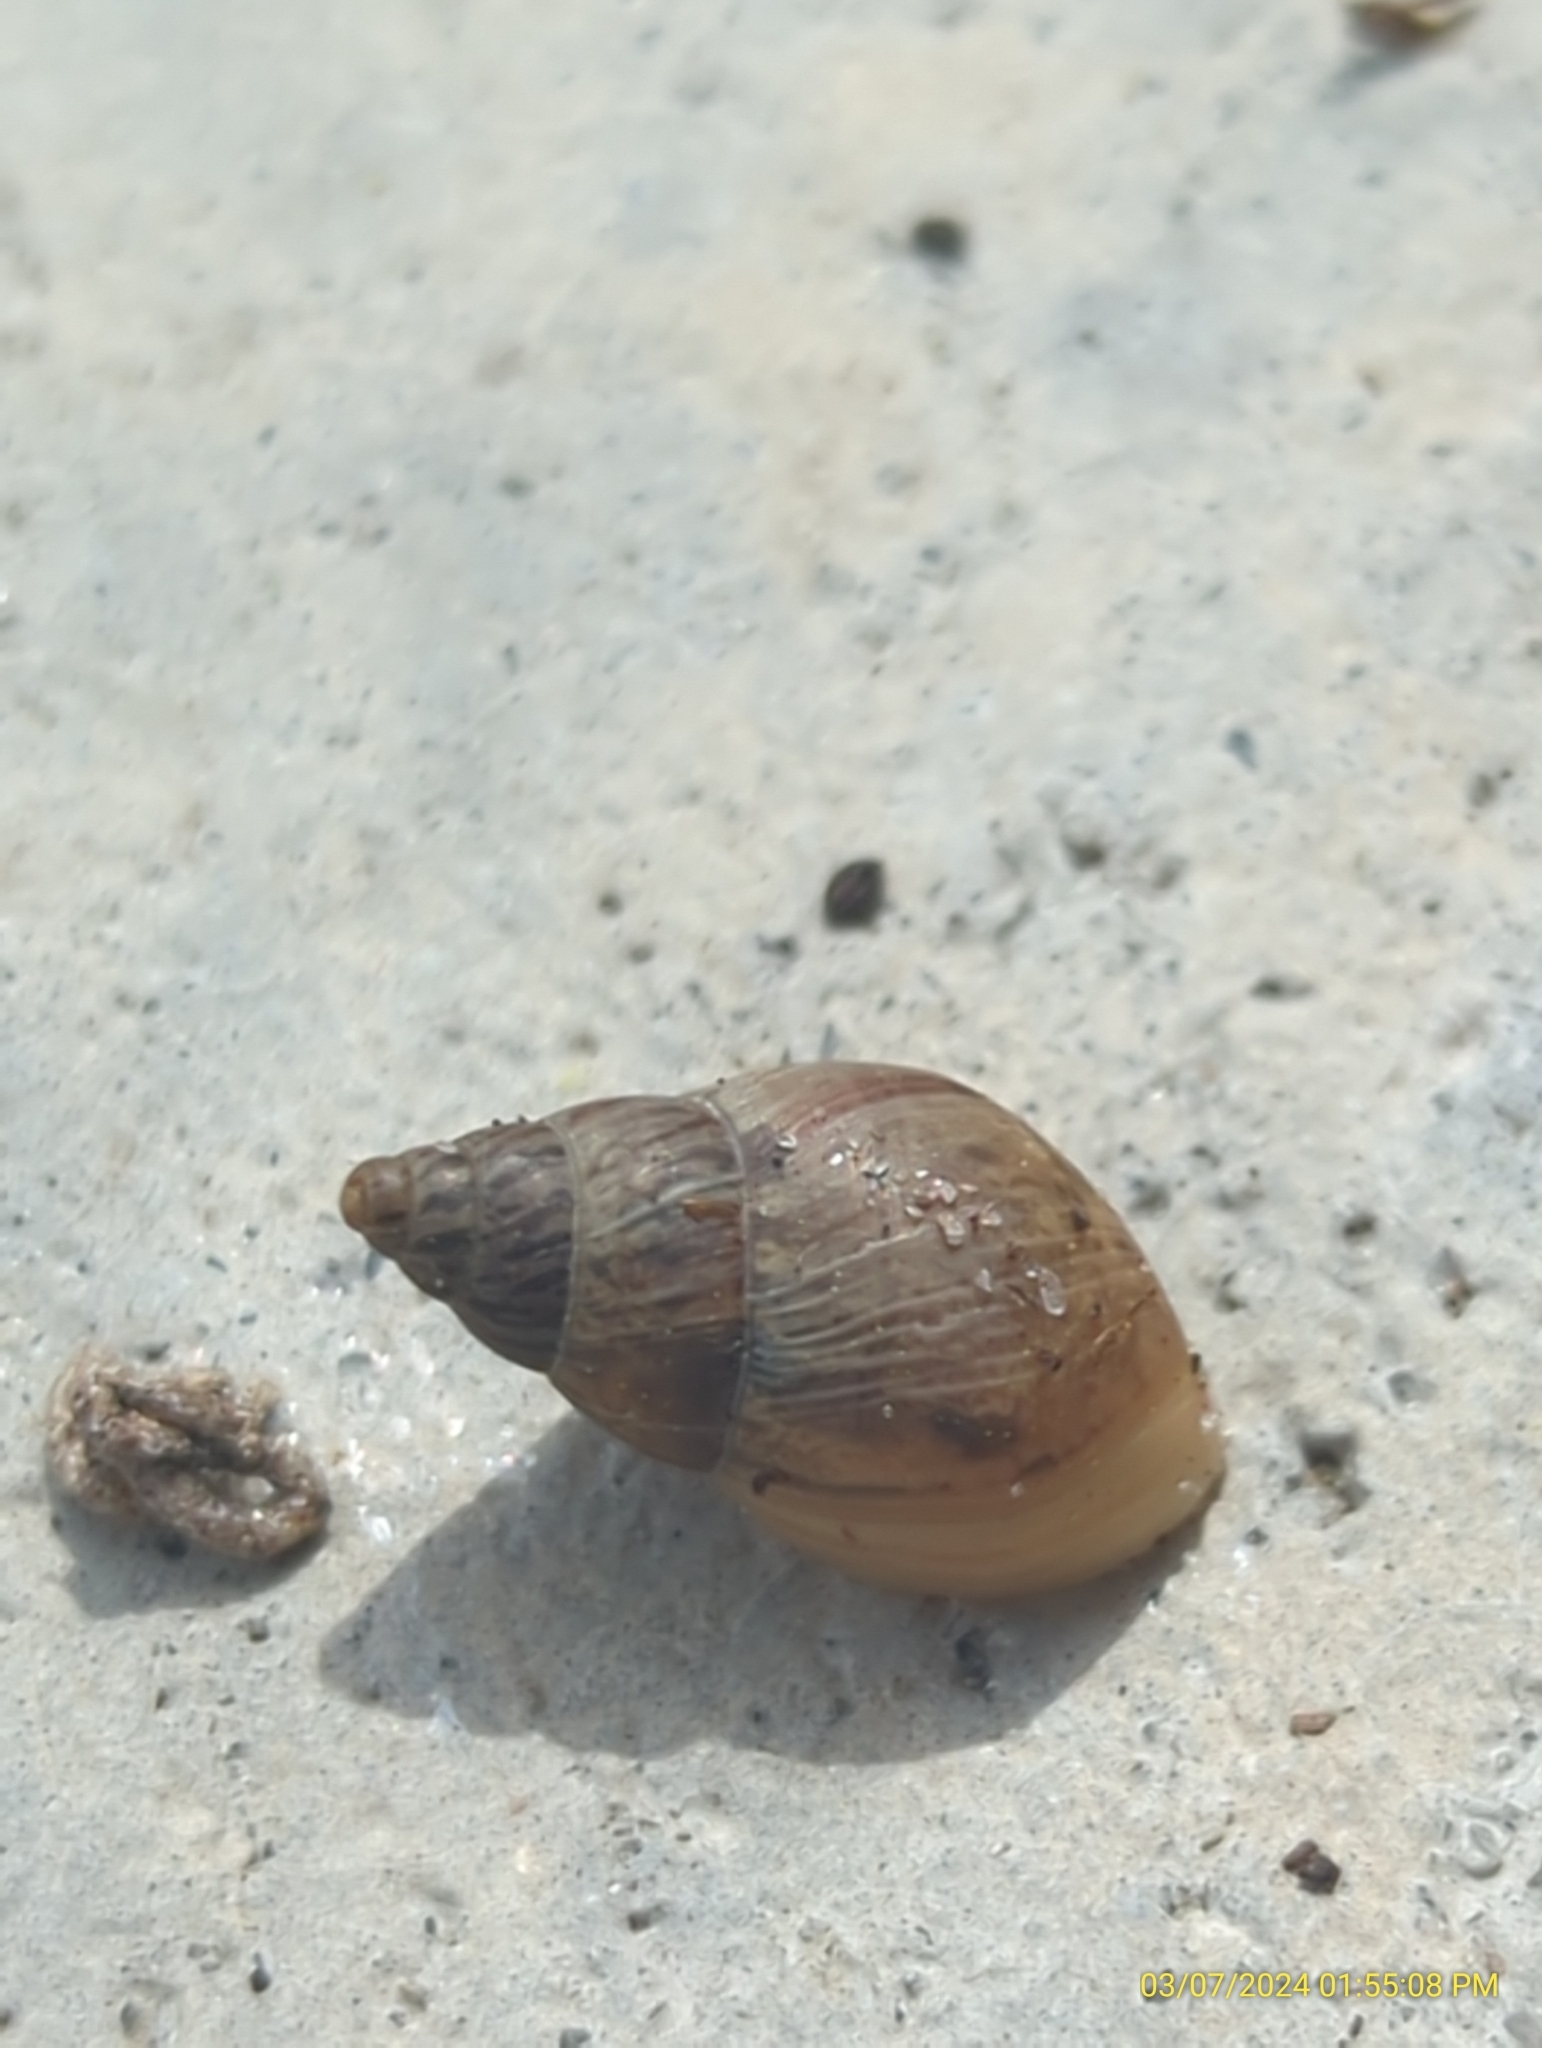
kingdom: Animalia
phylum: Mollusca
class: Gastropoda
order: Stylommatophora
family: Bulimulidae
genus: Bulimulus
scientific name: Bulimulus bonariensis
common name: Snail
